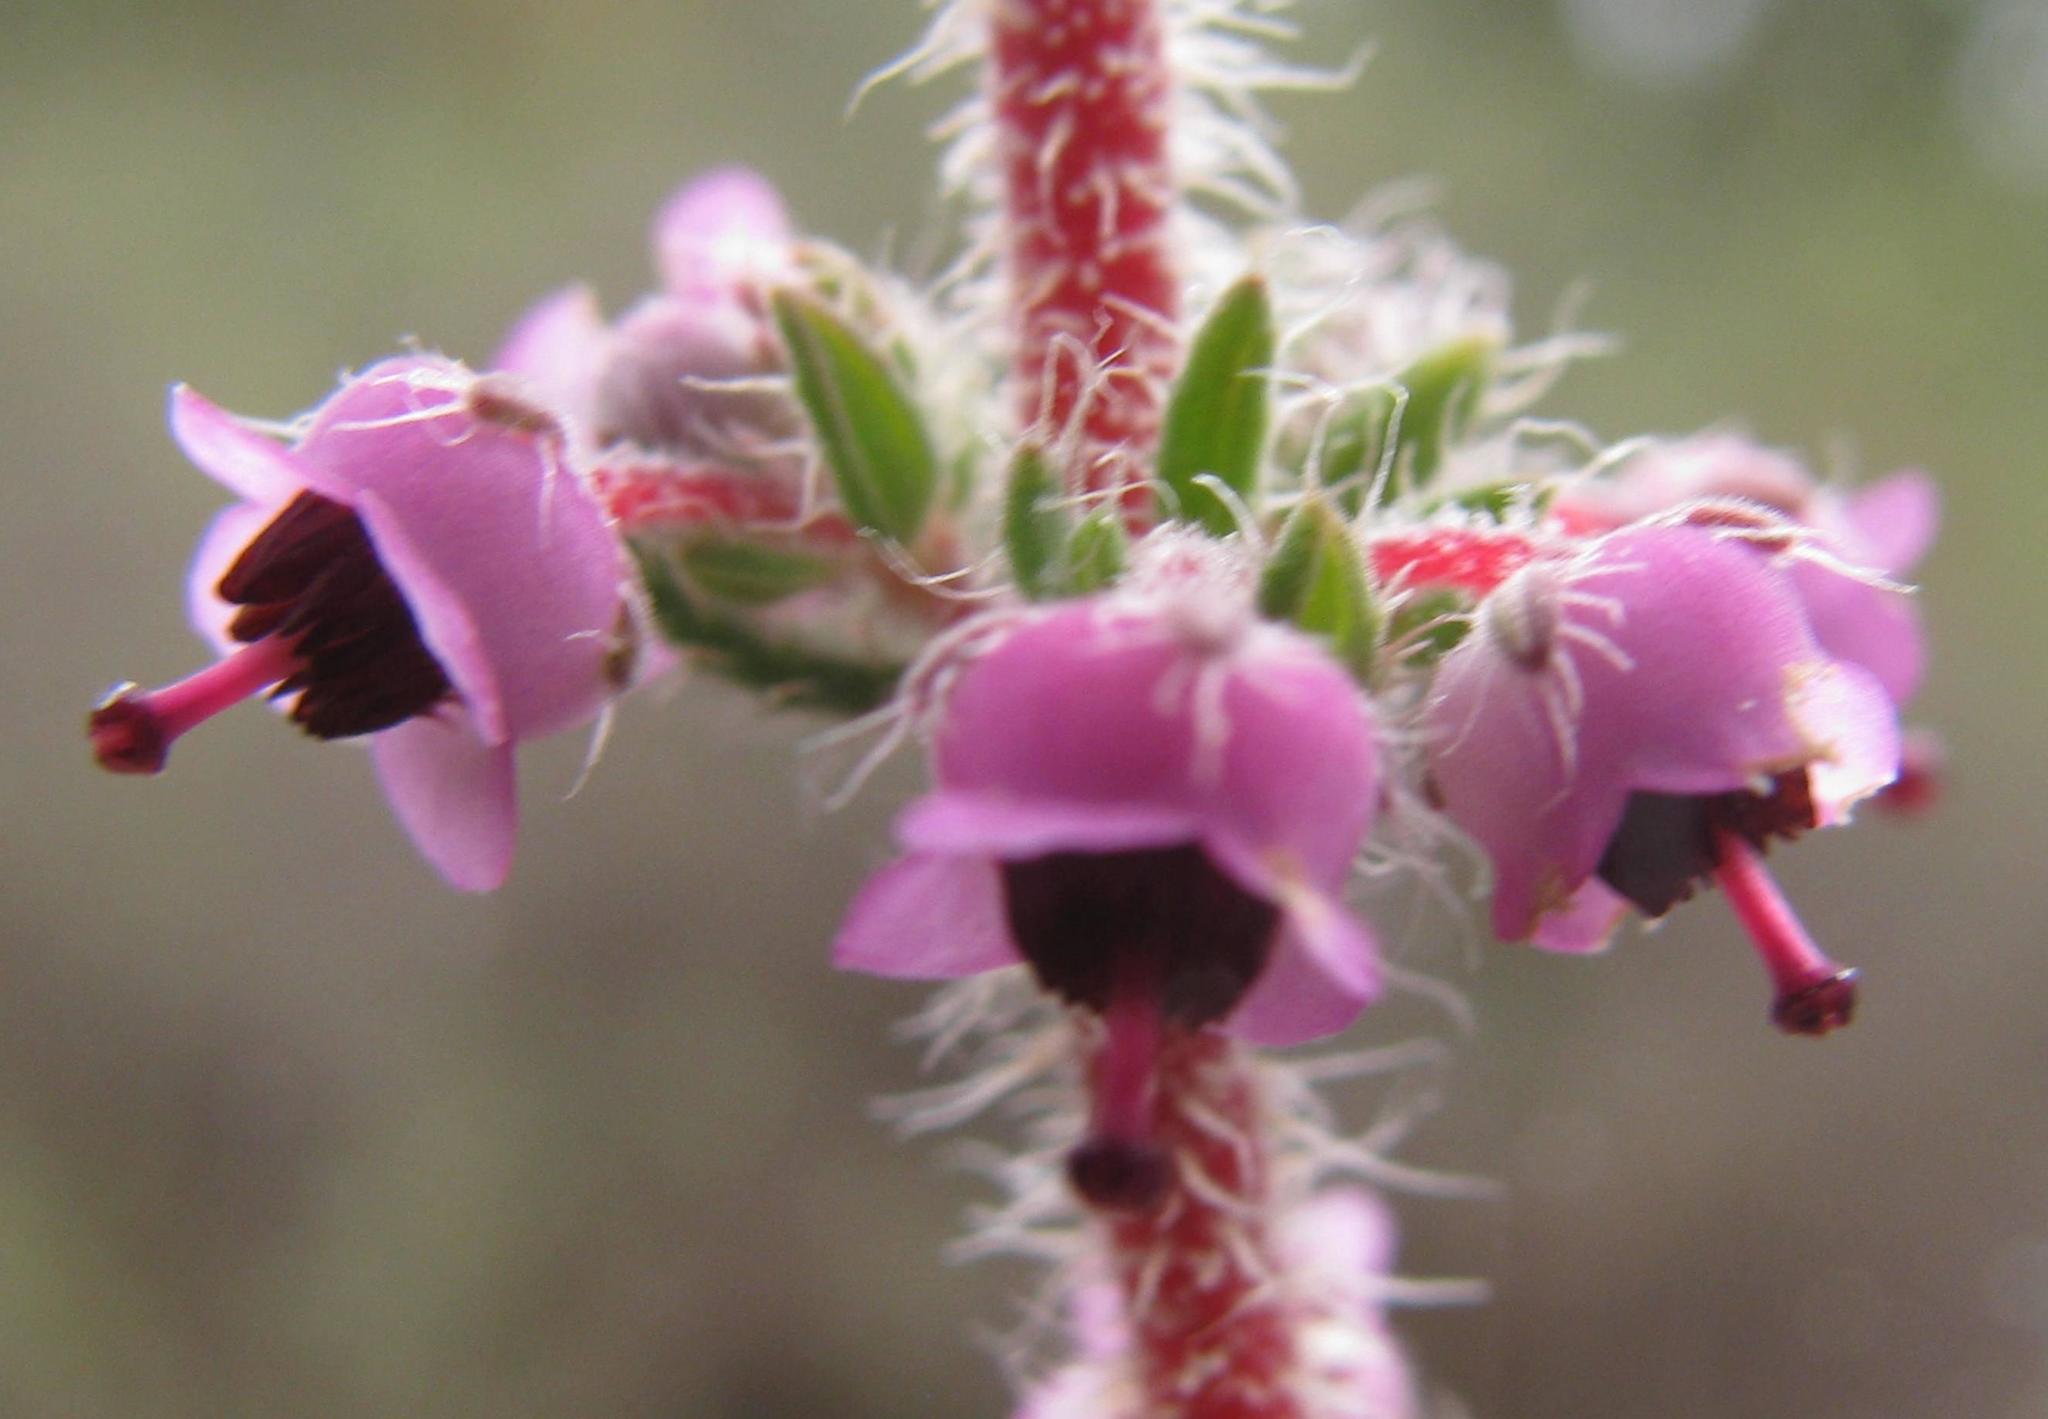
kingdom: Plantae
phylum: Tracheophyta
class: Magnoliopsida
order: Ericales
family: Ericaceae
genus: Erica
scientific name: Erica setacea
